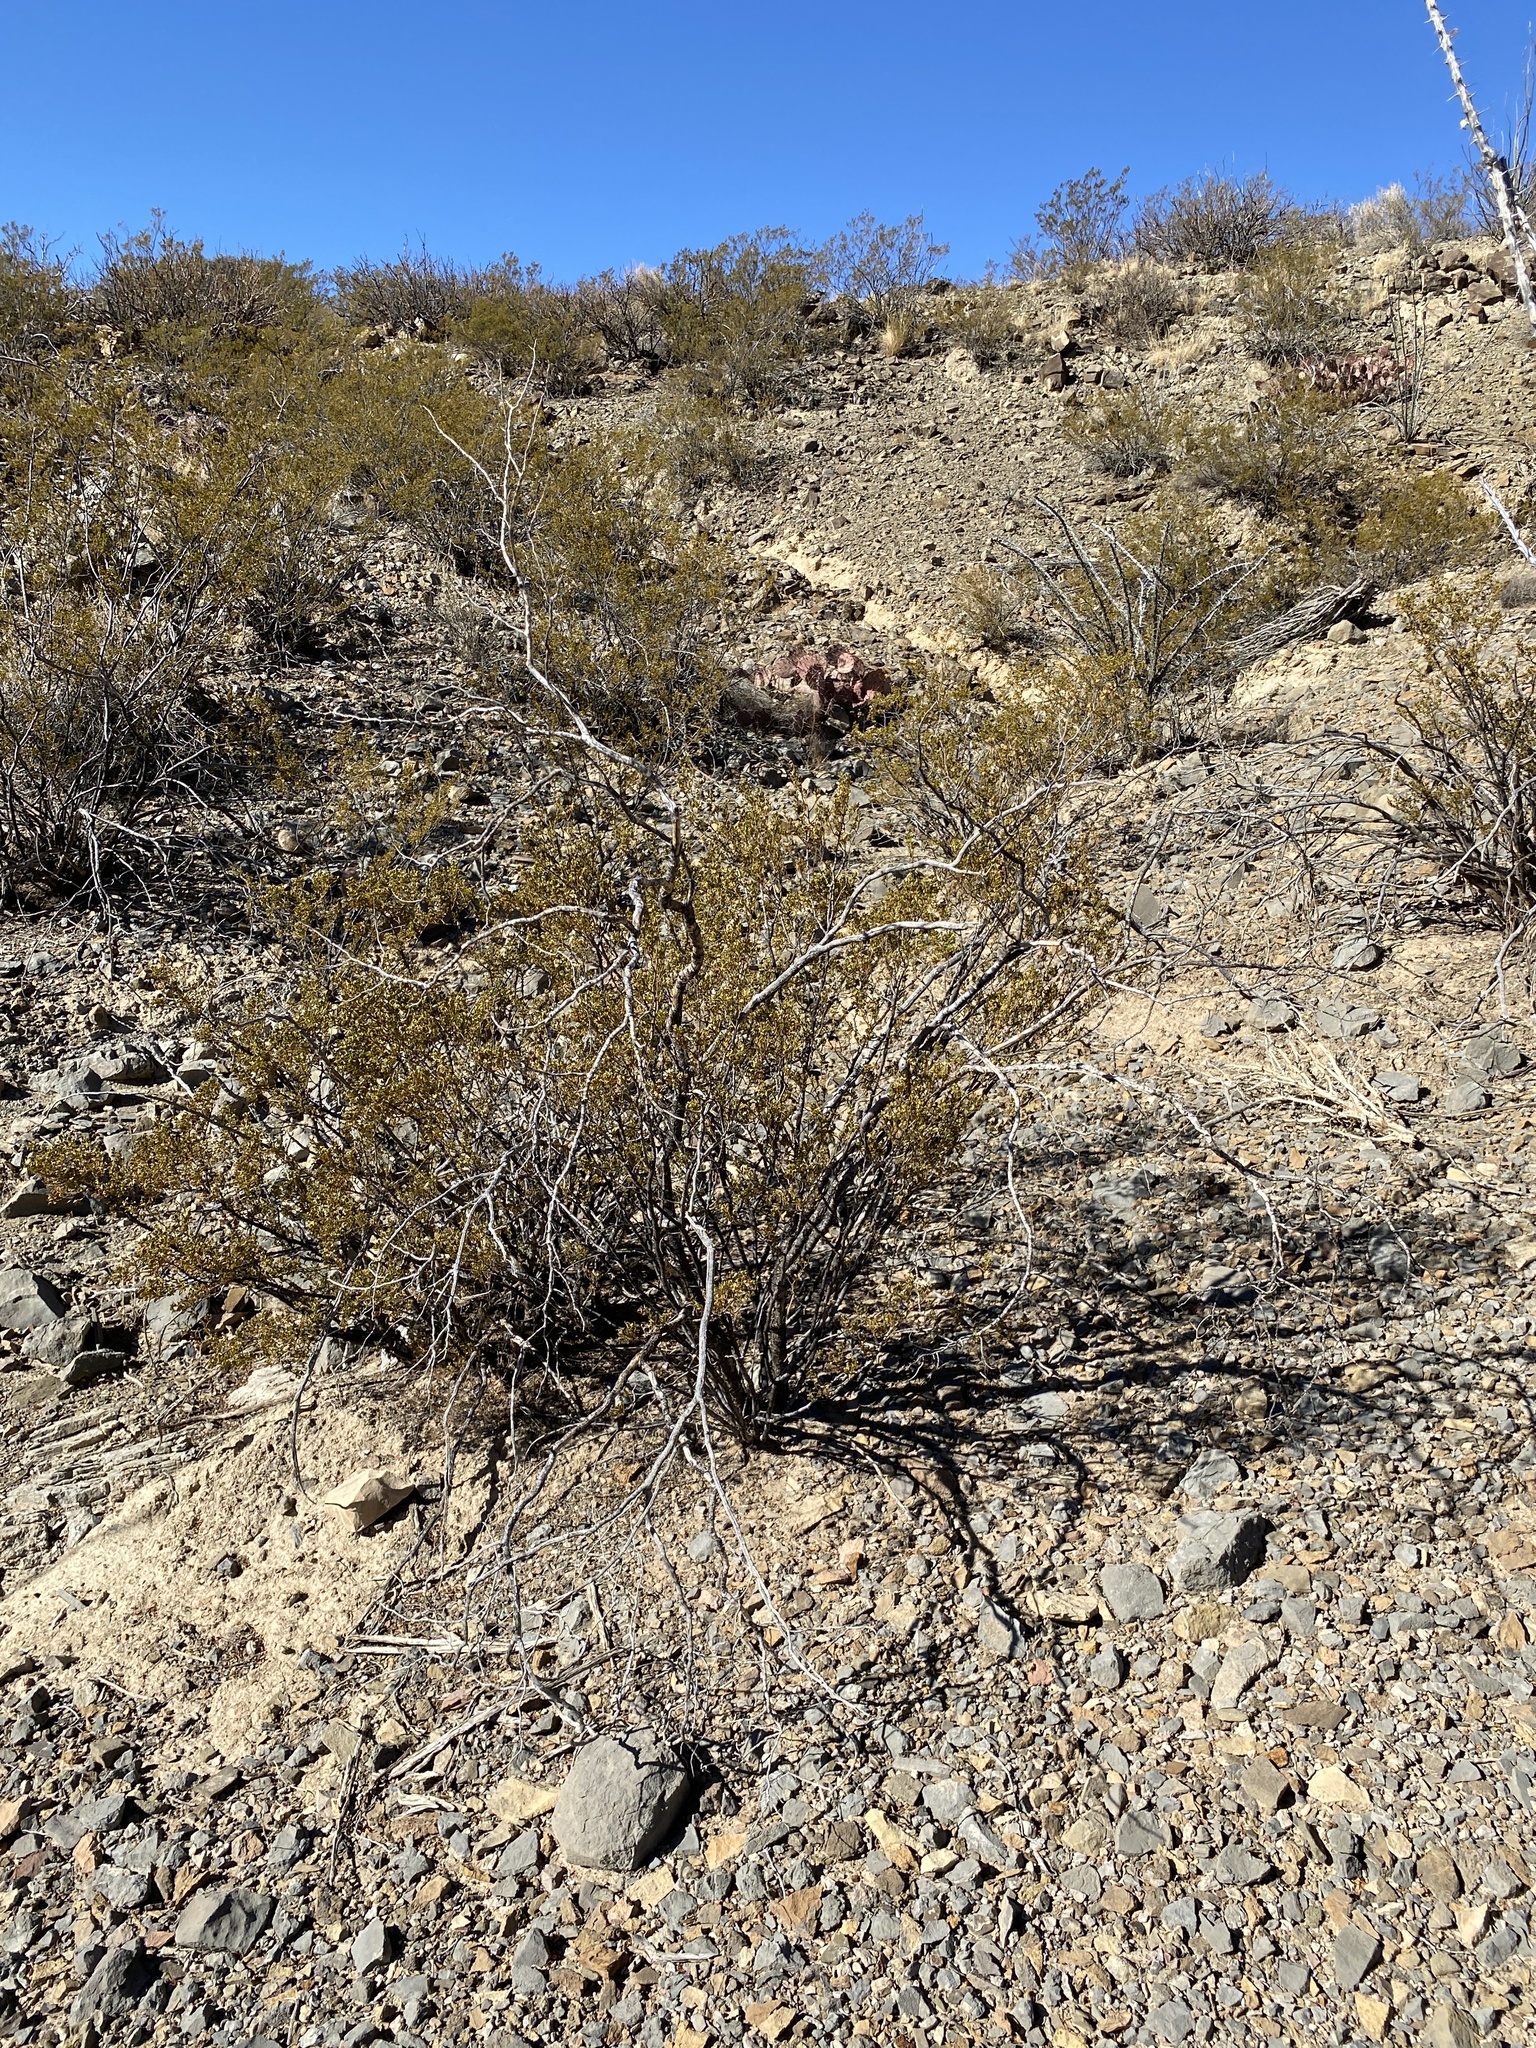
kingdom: Plantae
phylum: Tracheophyta
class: Magnoliopsida
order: Zygophyllales
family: Zygophyllaceae
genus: Larrea
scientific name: Larrea tridentata
